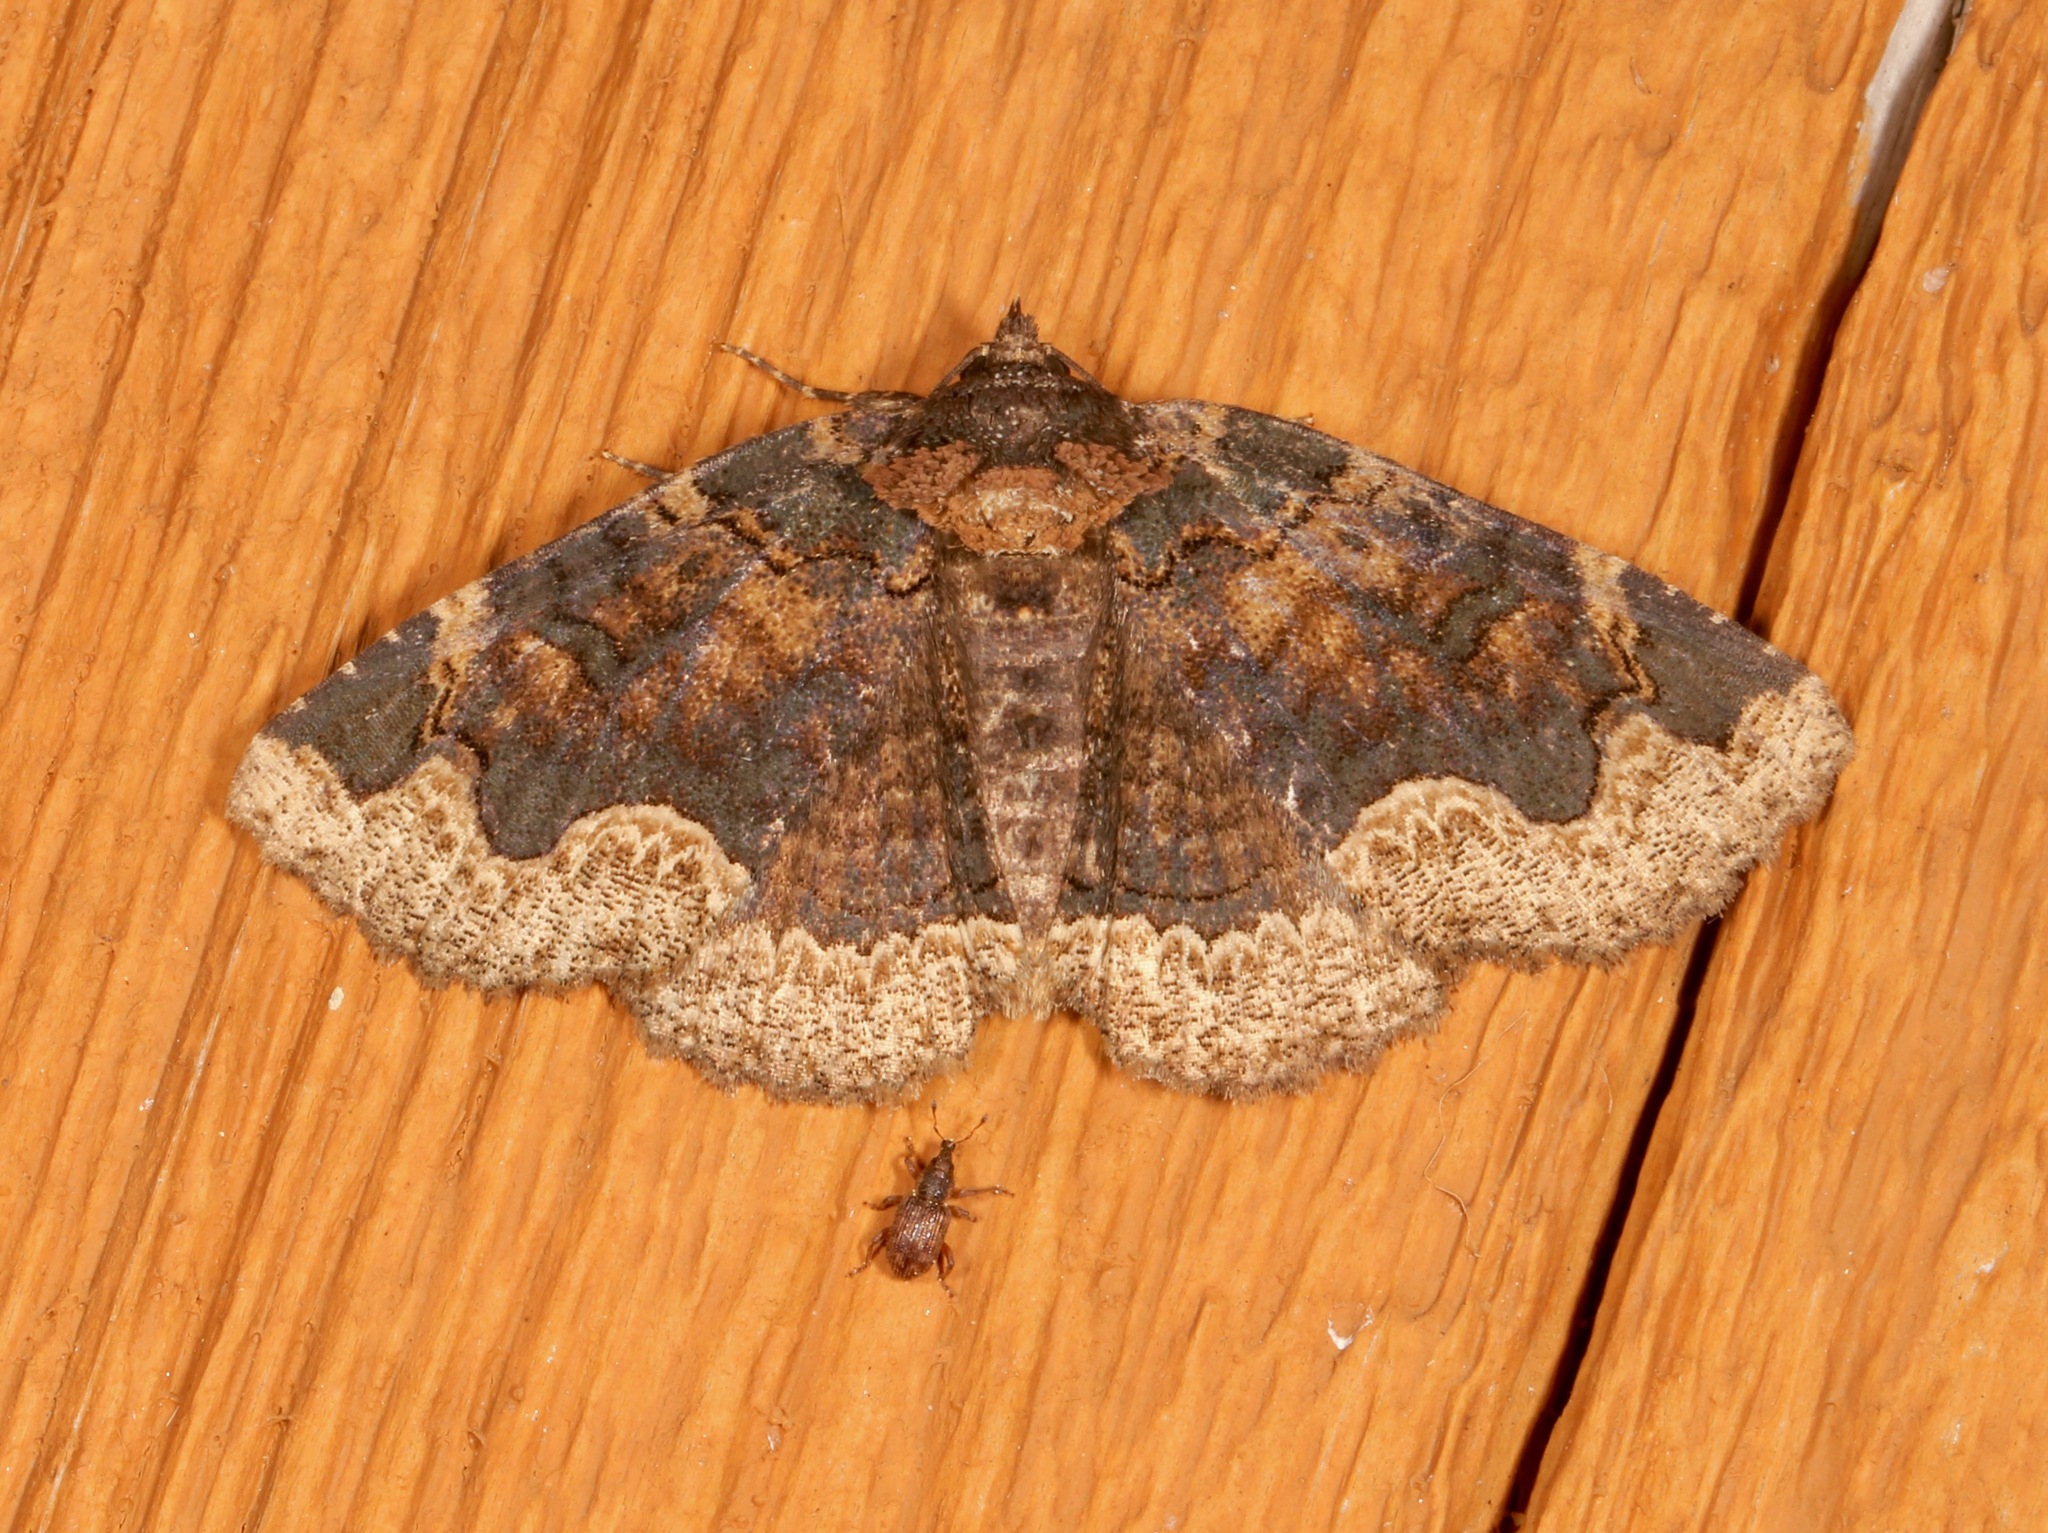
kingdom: Animalia
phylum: Arthropoda
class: Insecta
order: Lepidoptera
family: Erebidae
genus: Zale
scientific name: Zale horrida
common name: Horrid zale moth
